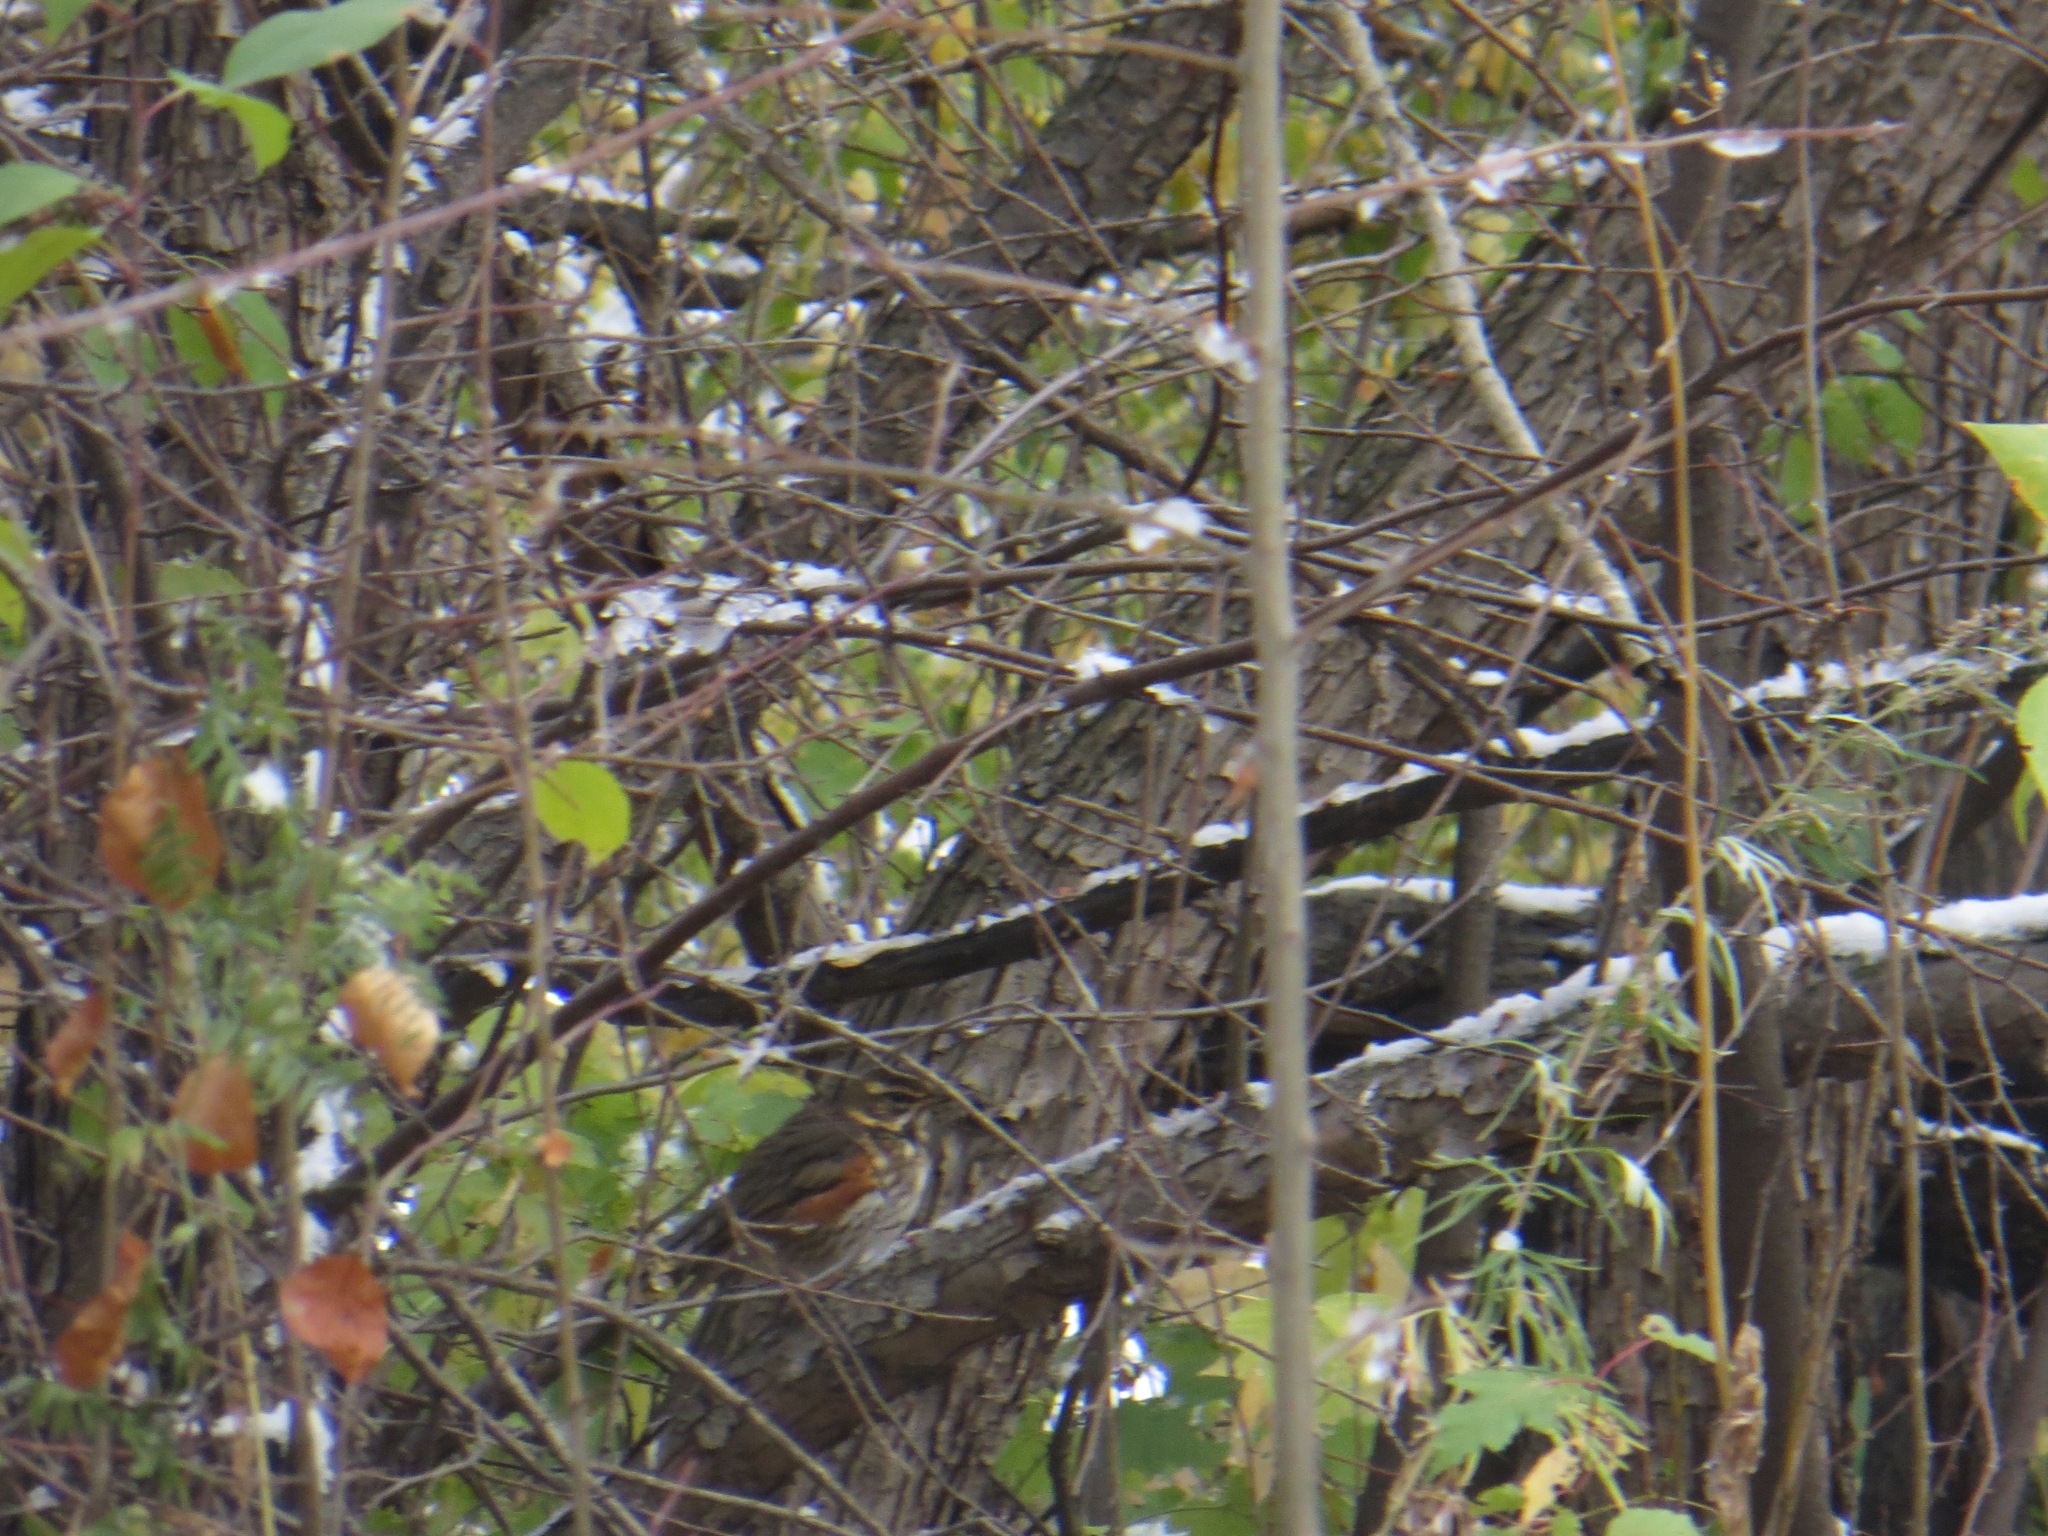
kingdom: Animalia
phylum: Chordata
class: Aves
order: Passeriformes
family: Turdidae
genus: Turdus
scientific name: Turdus iliacus
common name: Redwing
